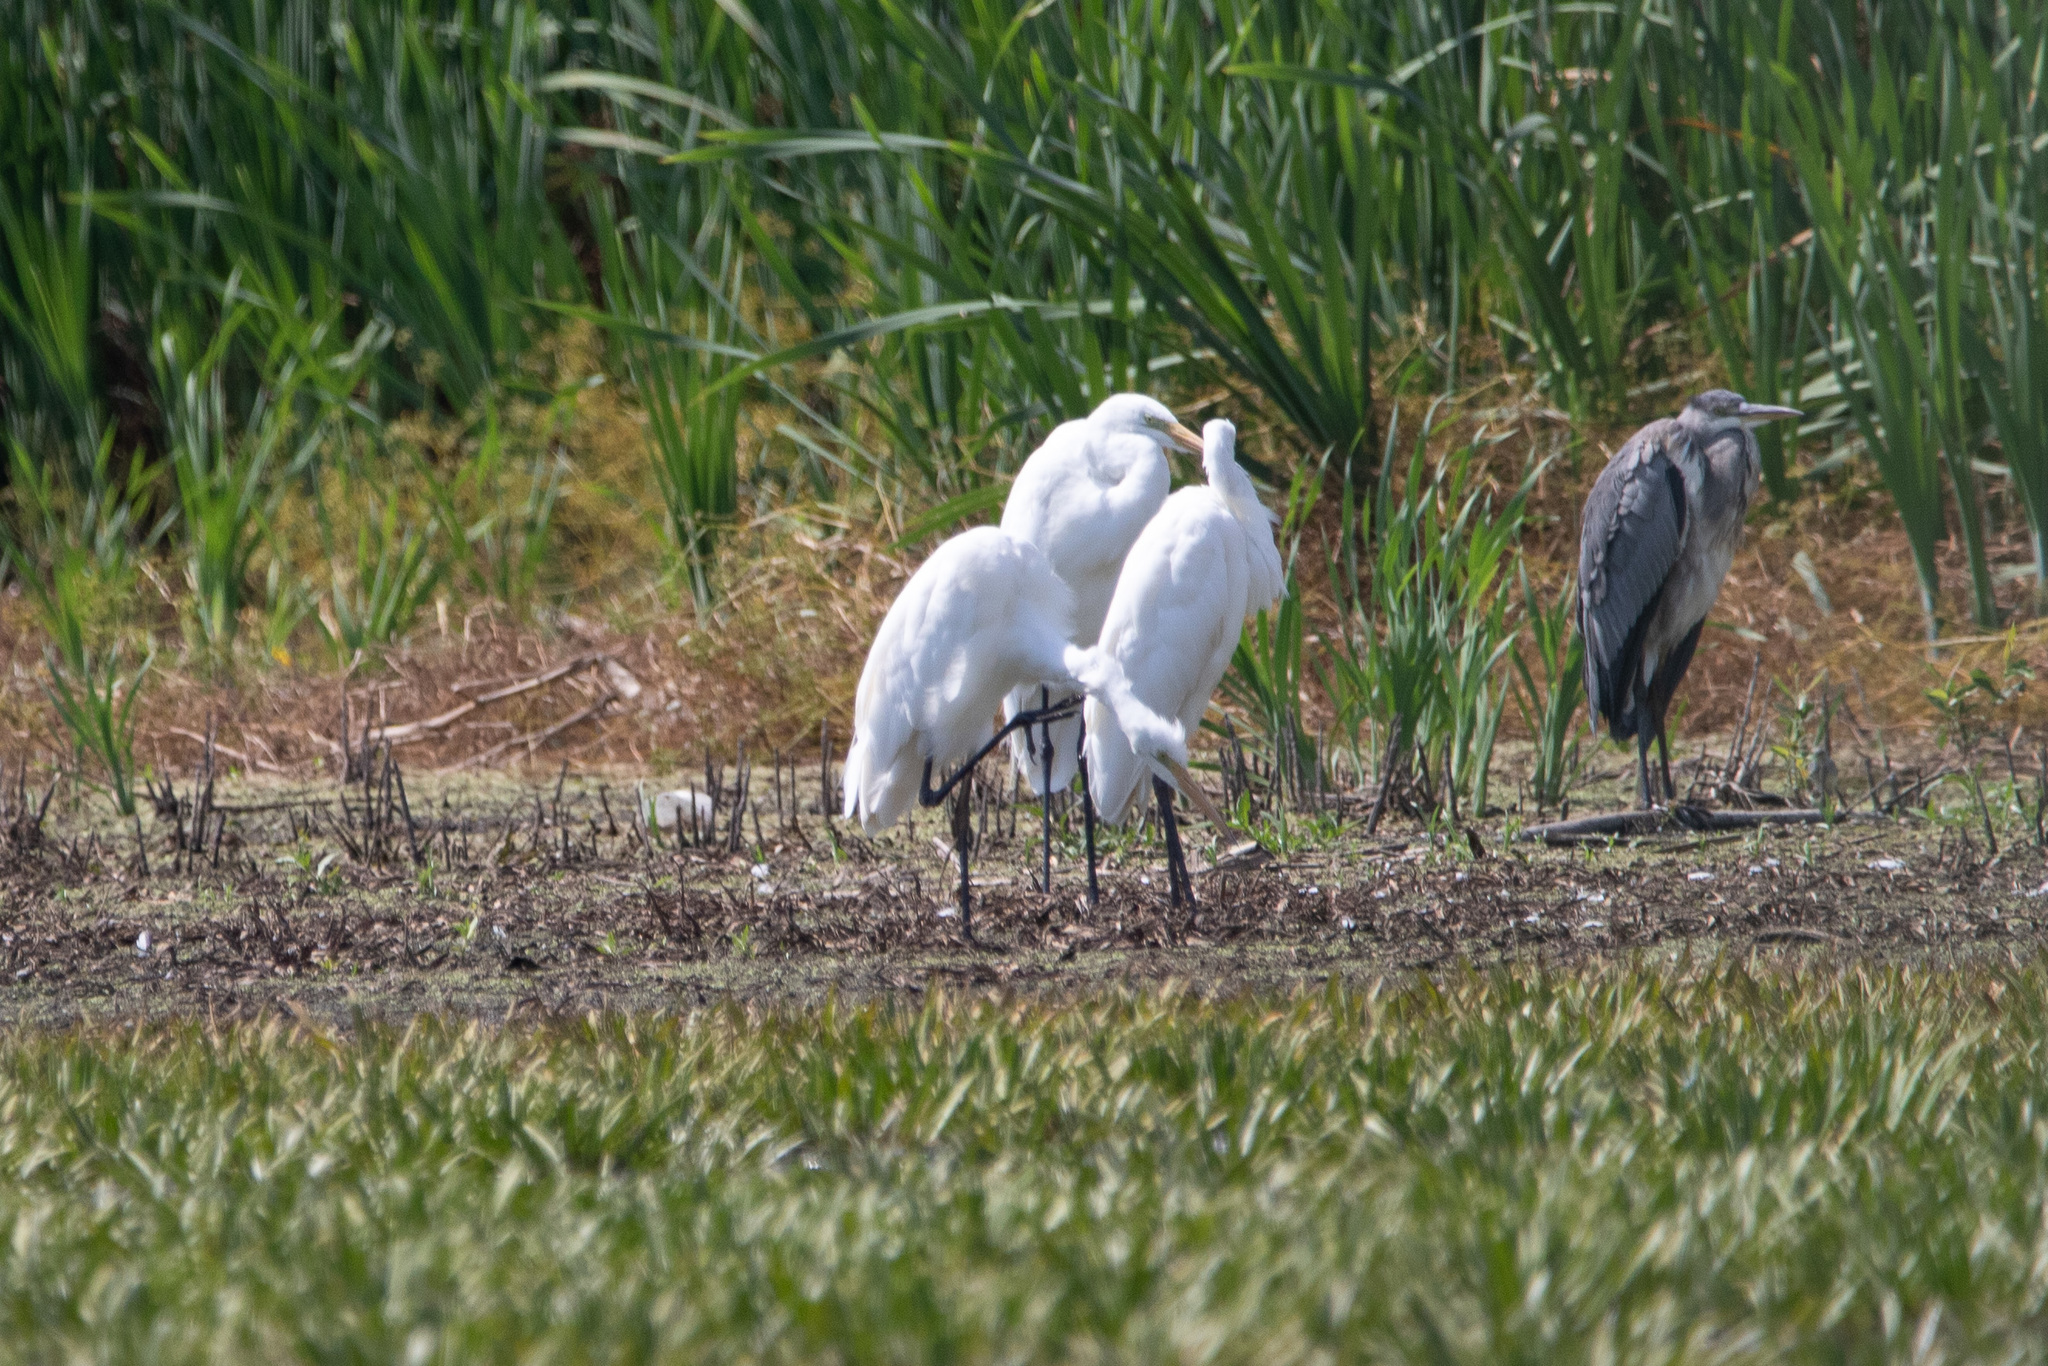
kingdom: Animalia
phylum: Chordata
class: Aves
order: Pelecaniformes
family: Ardeidae
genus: Ardea
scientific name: Ardea alba
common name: Great egret
